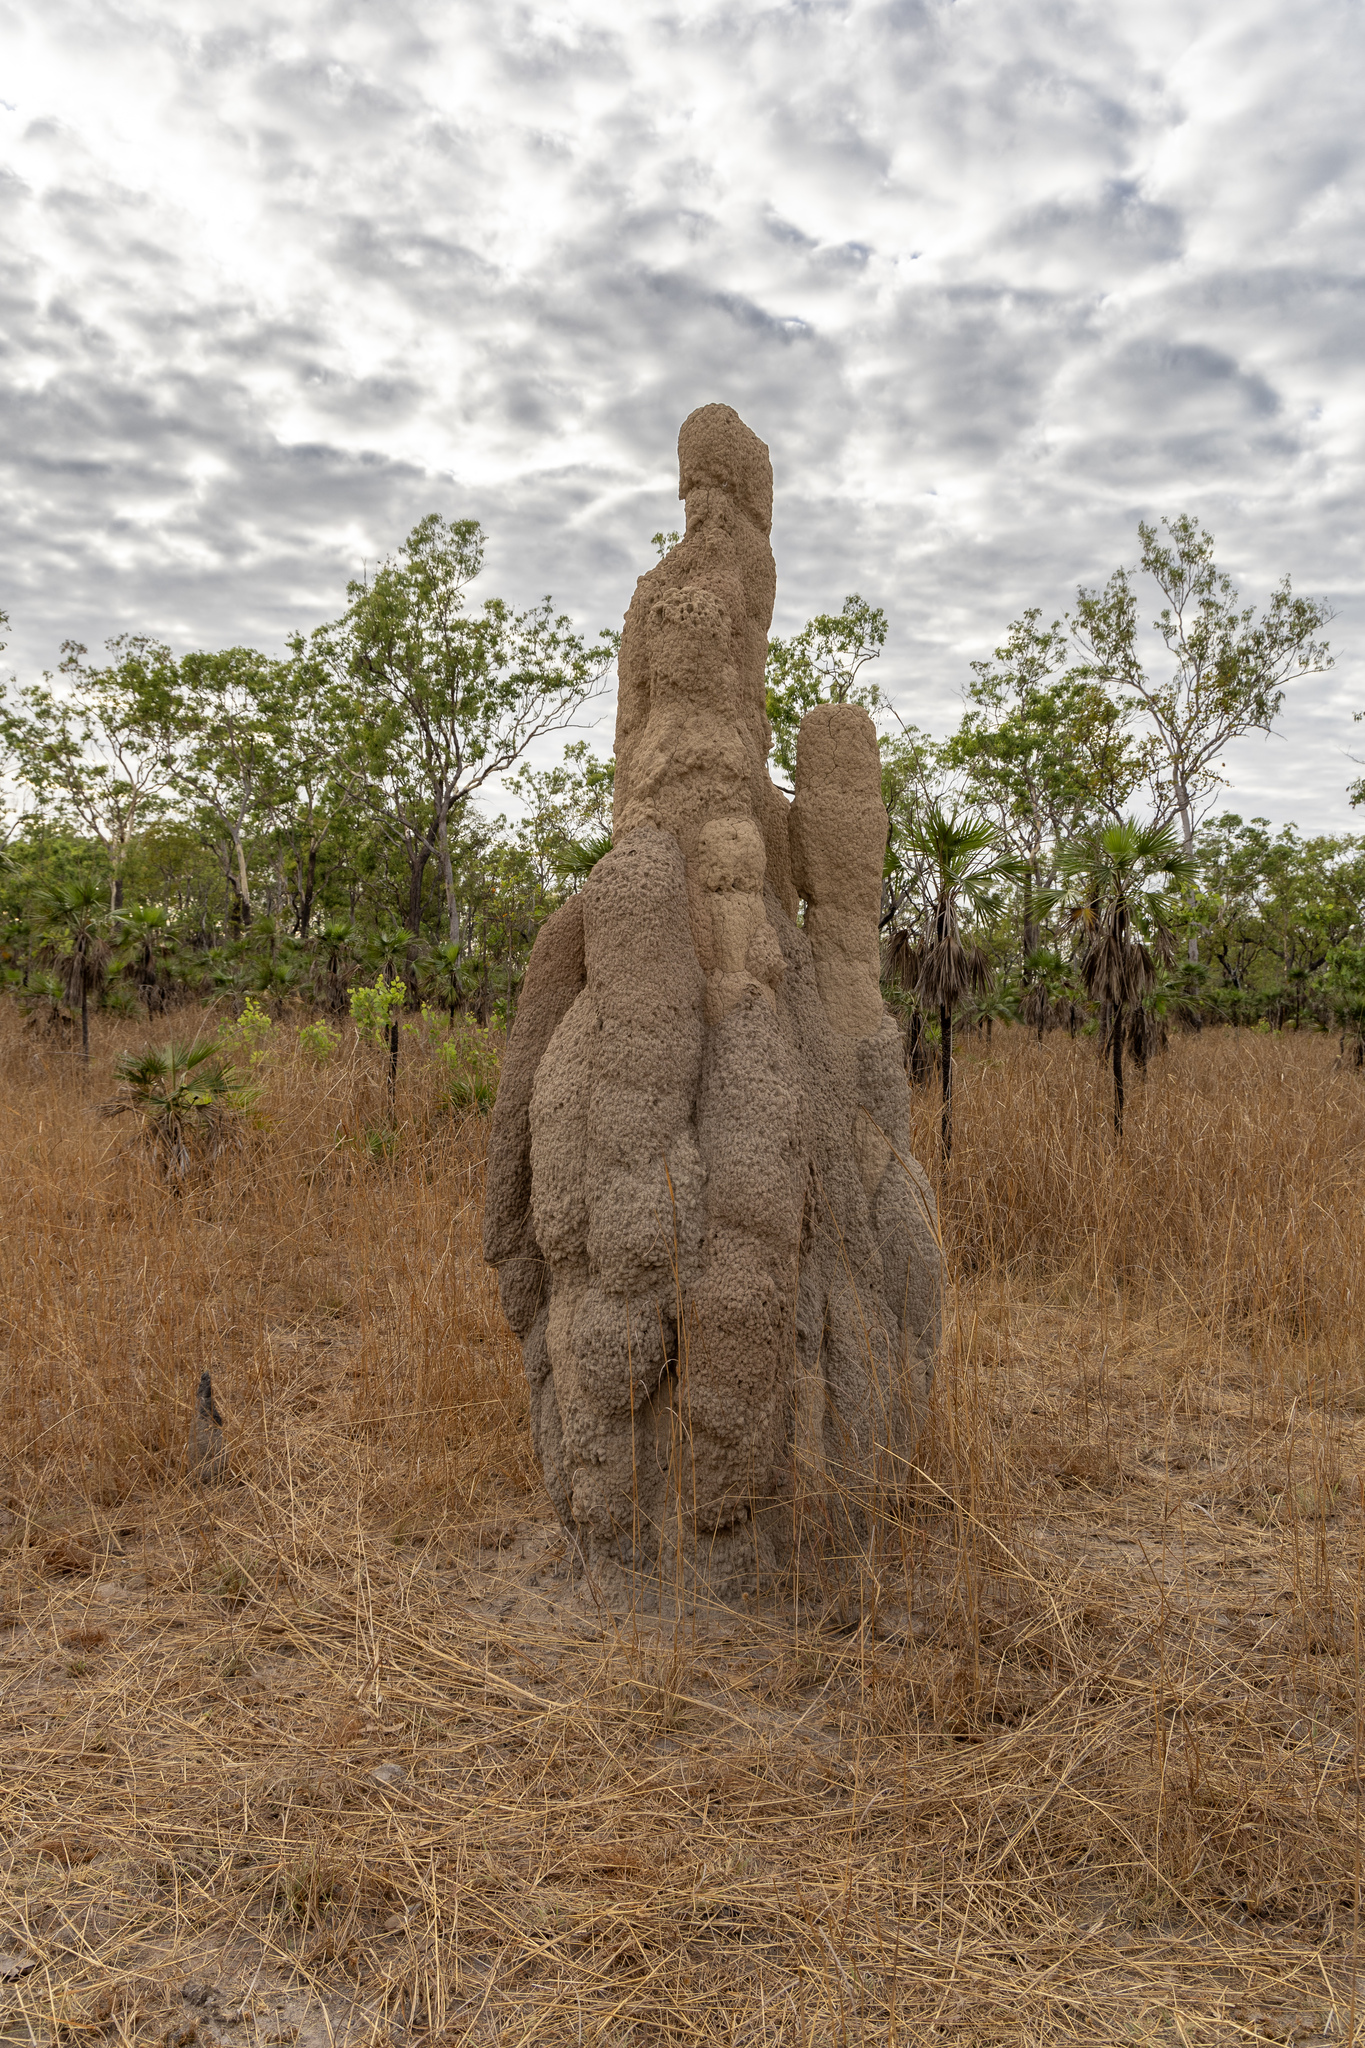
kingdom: Animalia
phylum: Arthropoda
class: Insecta
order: Blattodea
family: Termitidae
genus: Nasutitermes
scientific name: Nasutitermes triodiae
